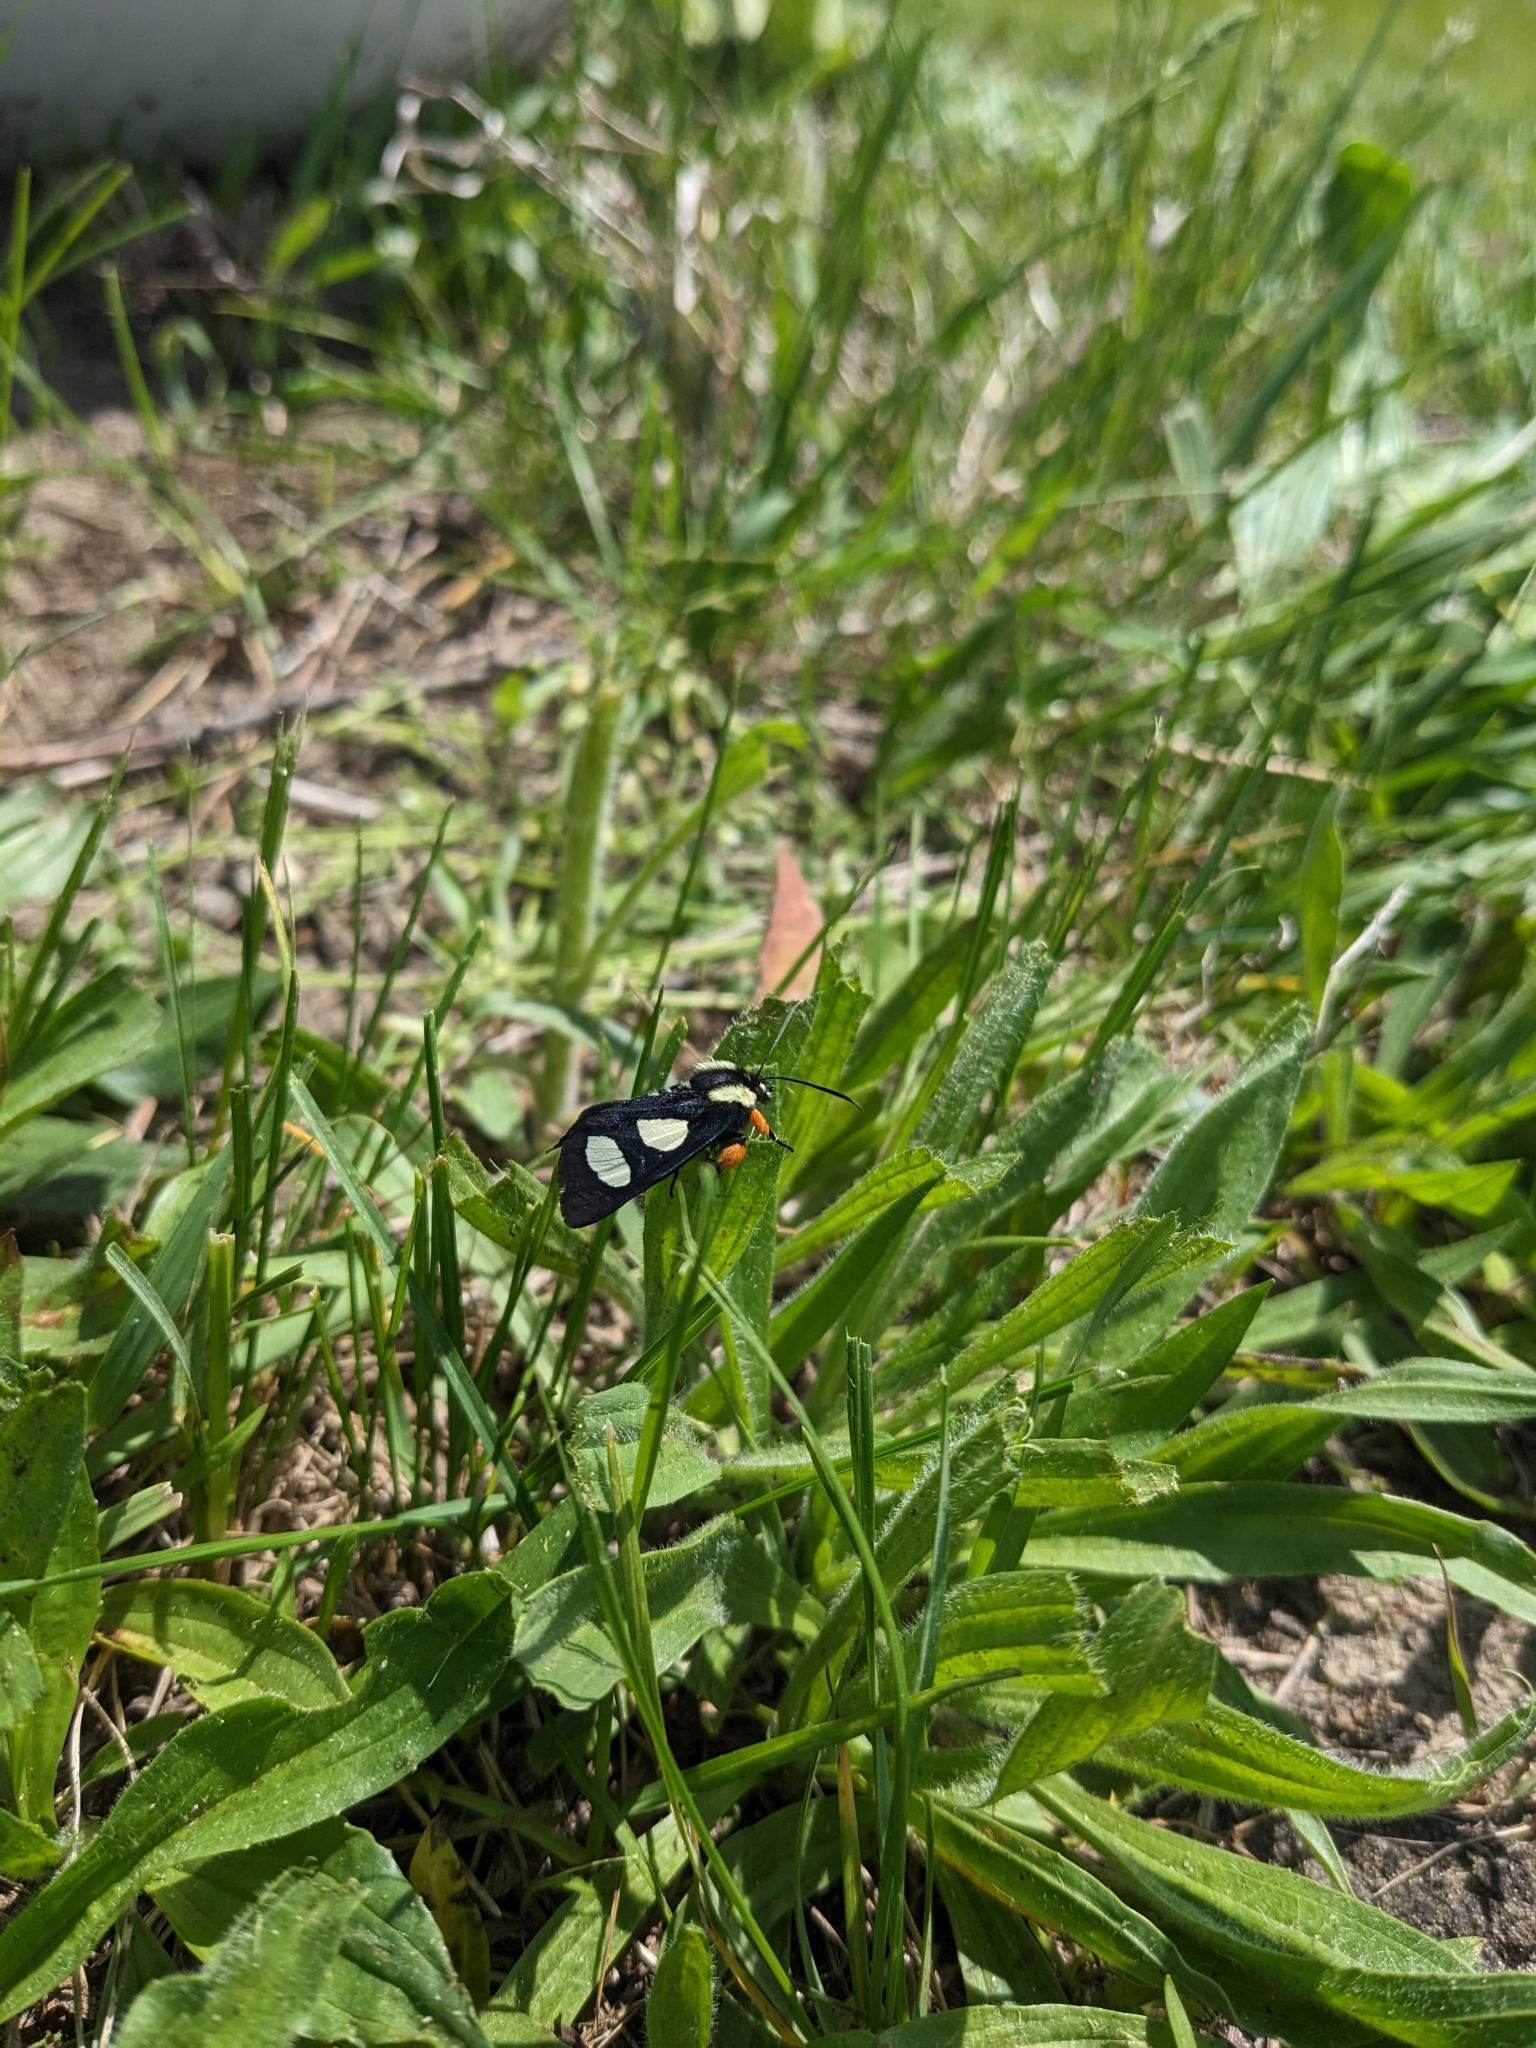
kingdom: Animalia
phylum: Arthropoda
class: Insecta
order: Lepidoptera
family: Noctuidae
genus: Alypia
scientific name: Alypia octomaculata
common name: Eight-spotted forester
